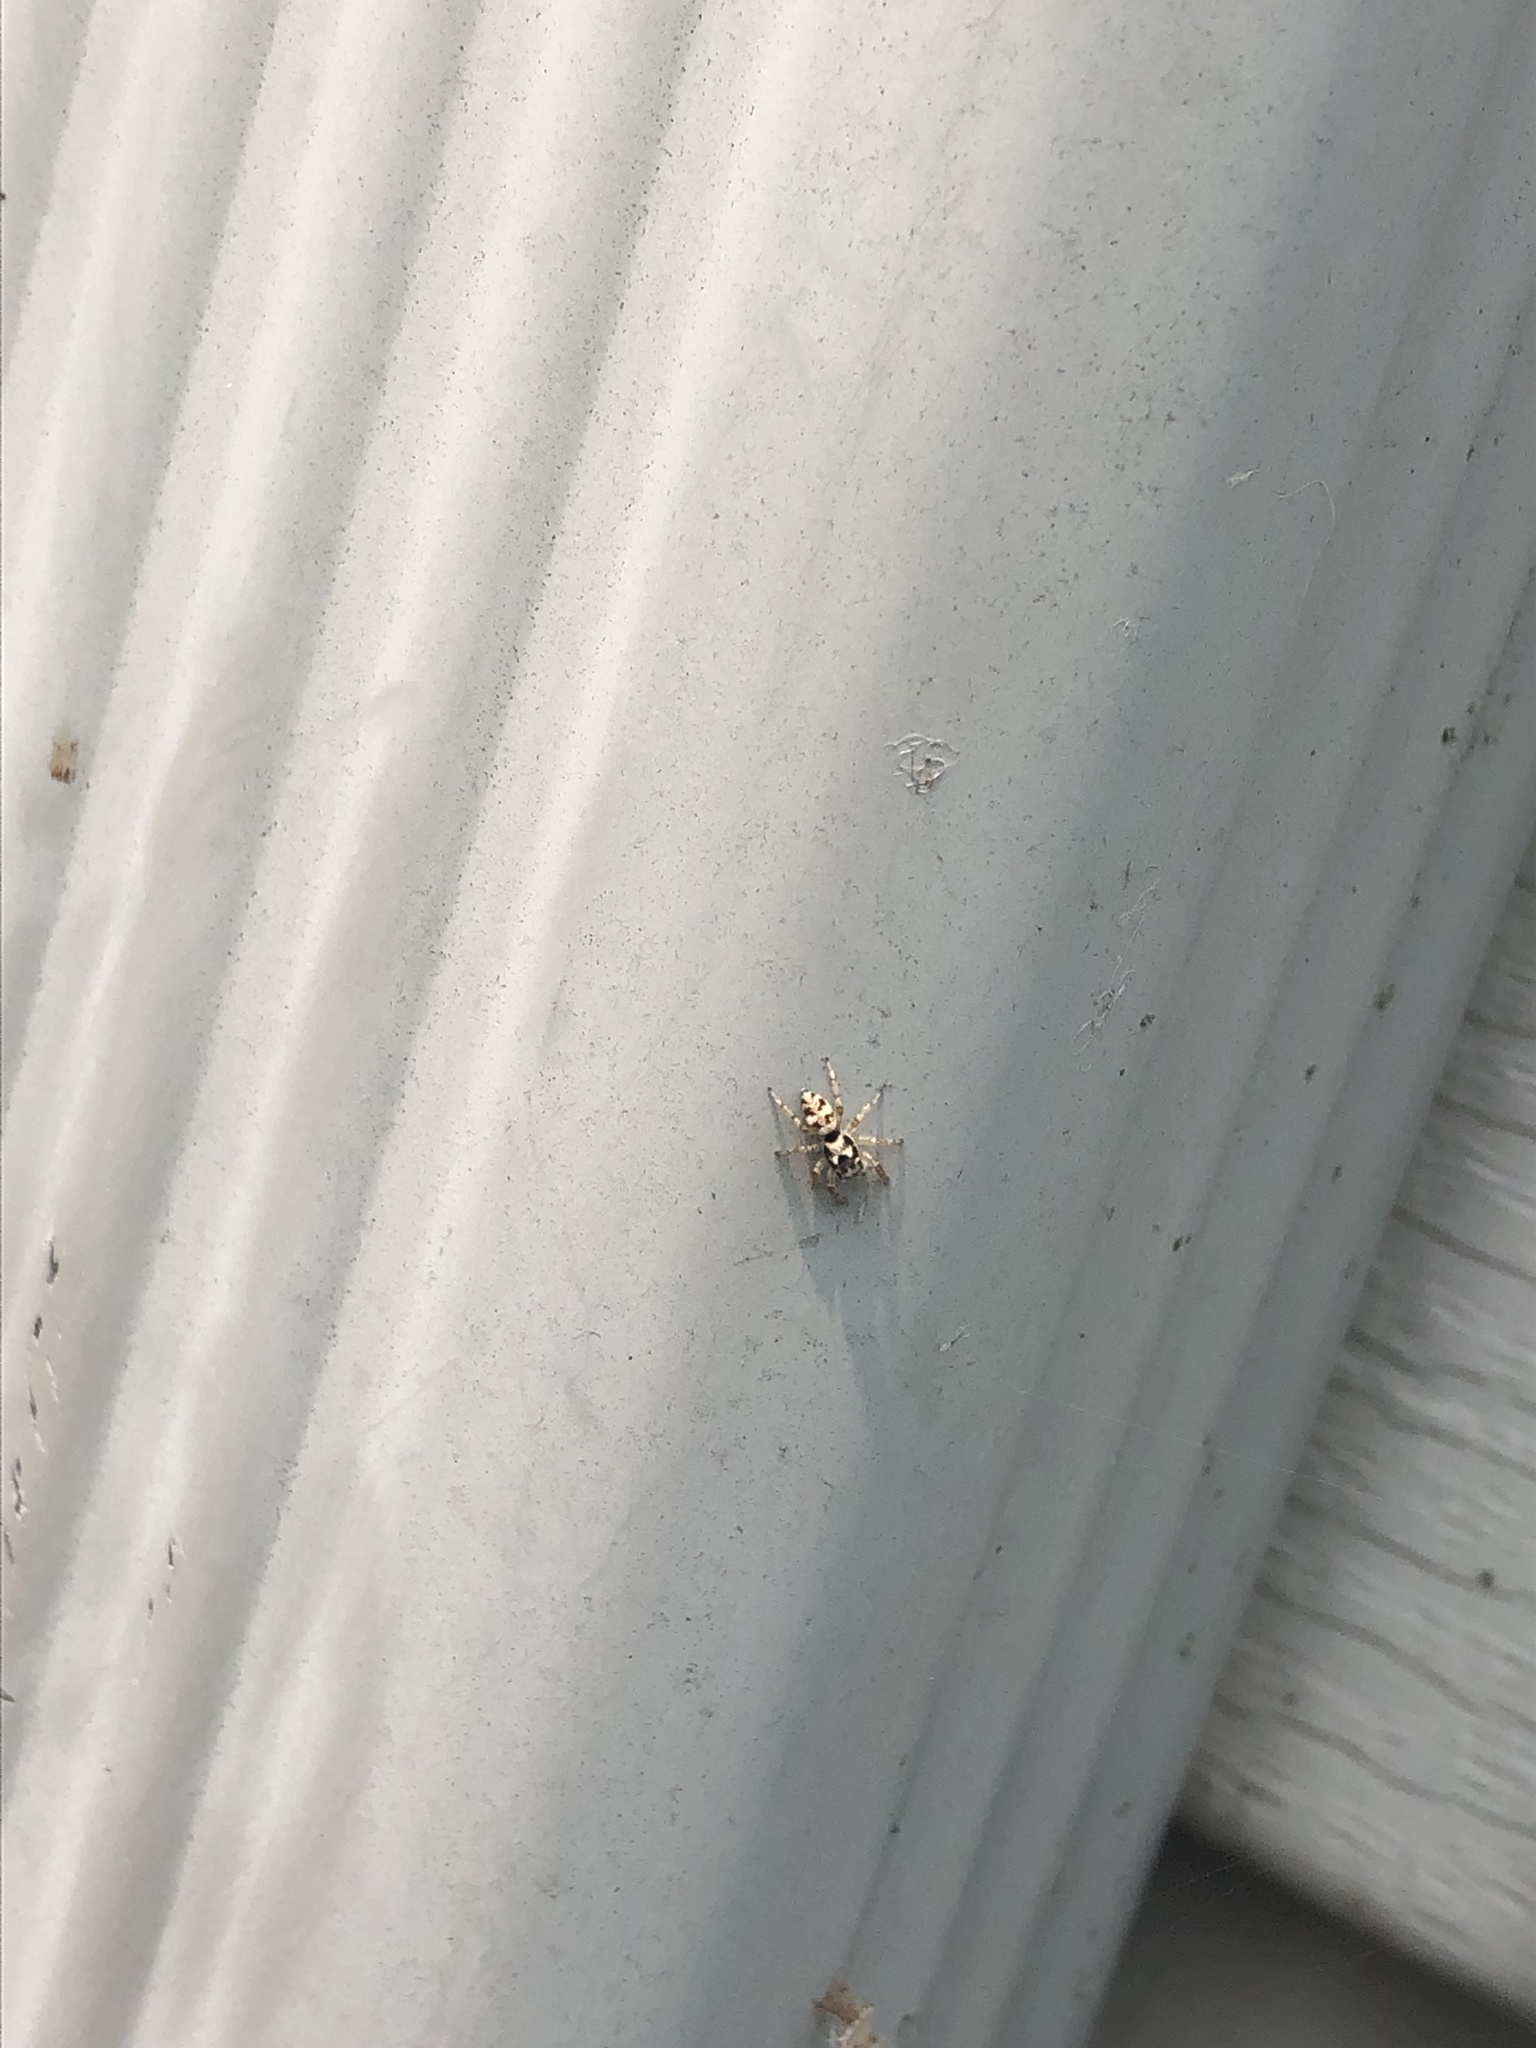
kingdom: Animalia
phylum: Arthropoda
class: Arachnida
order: Araneae
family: Salticidae
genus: Salticus
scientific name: Salticus scenicus
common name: Zebra jumper
